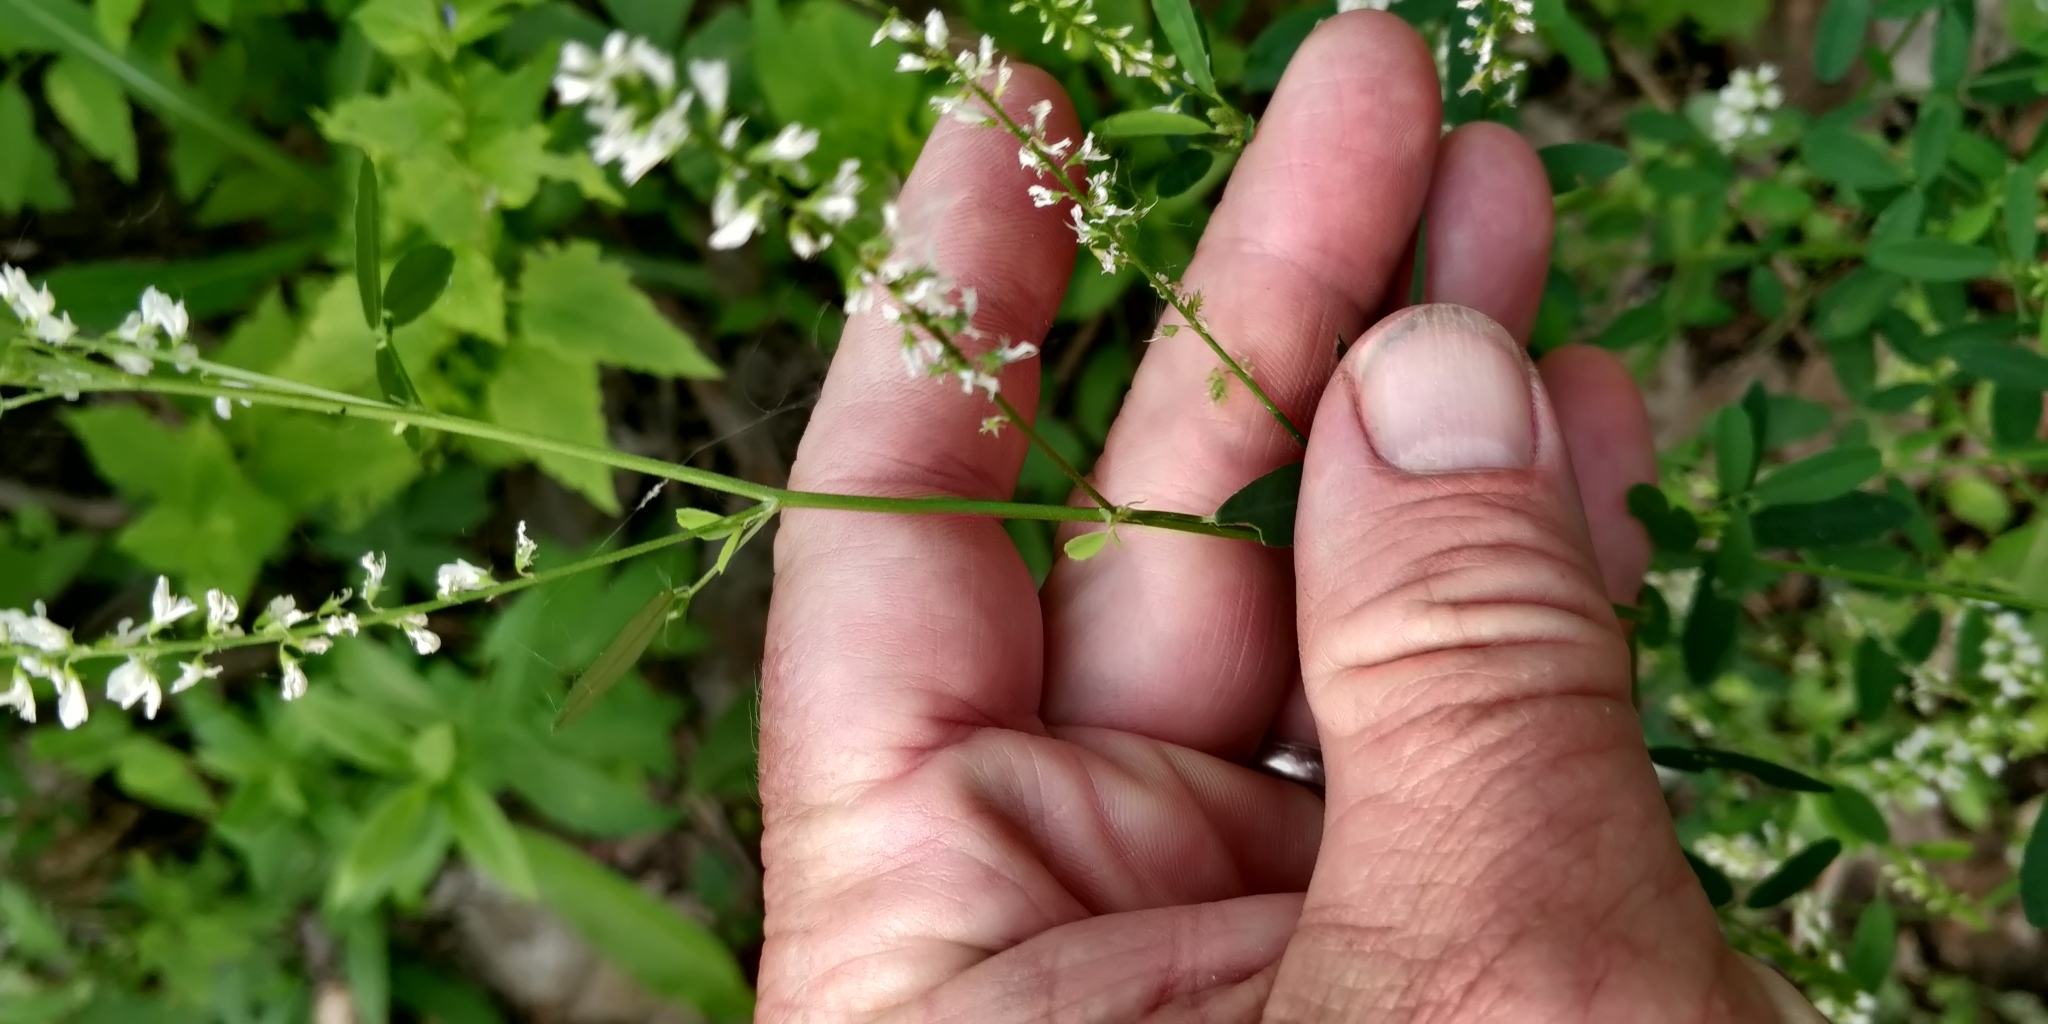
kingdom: Plantae
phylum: Tracheophyta
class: Magnoliopsida
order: Fabales
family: Fabaceae
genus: Melilotus
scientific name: Melilotus albus
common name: White melilot
